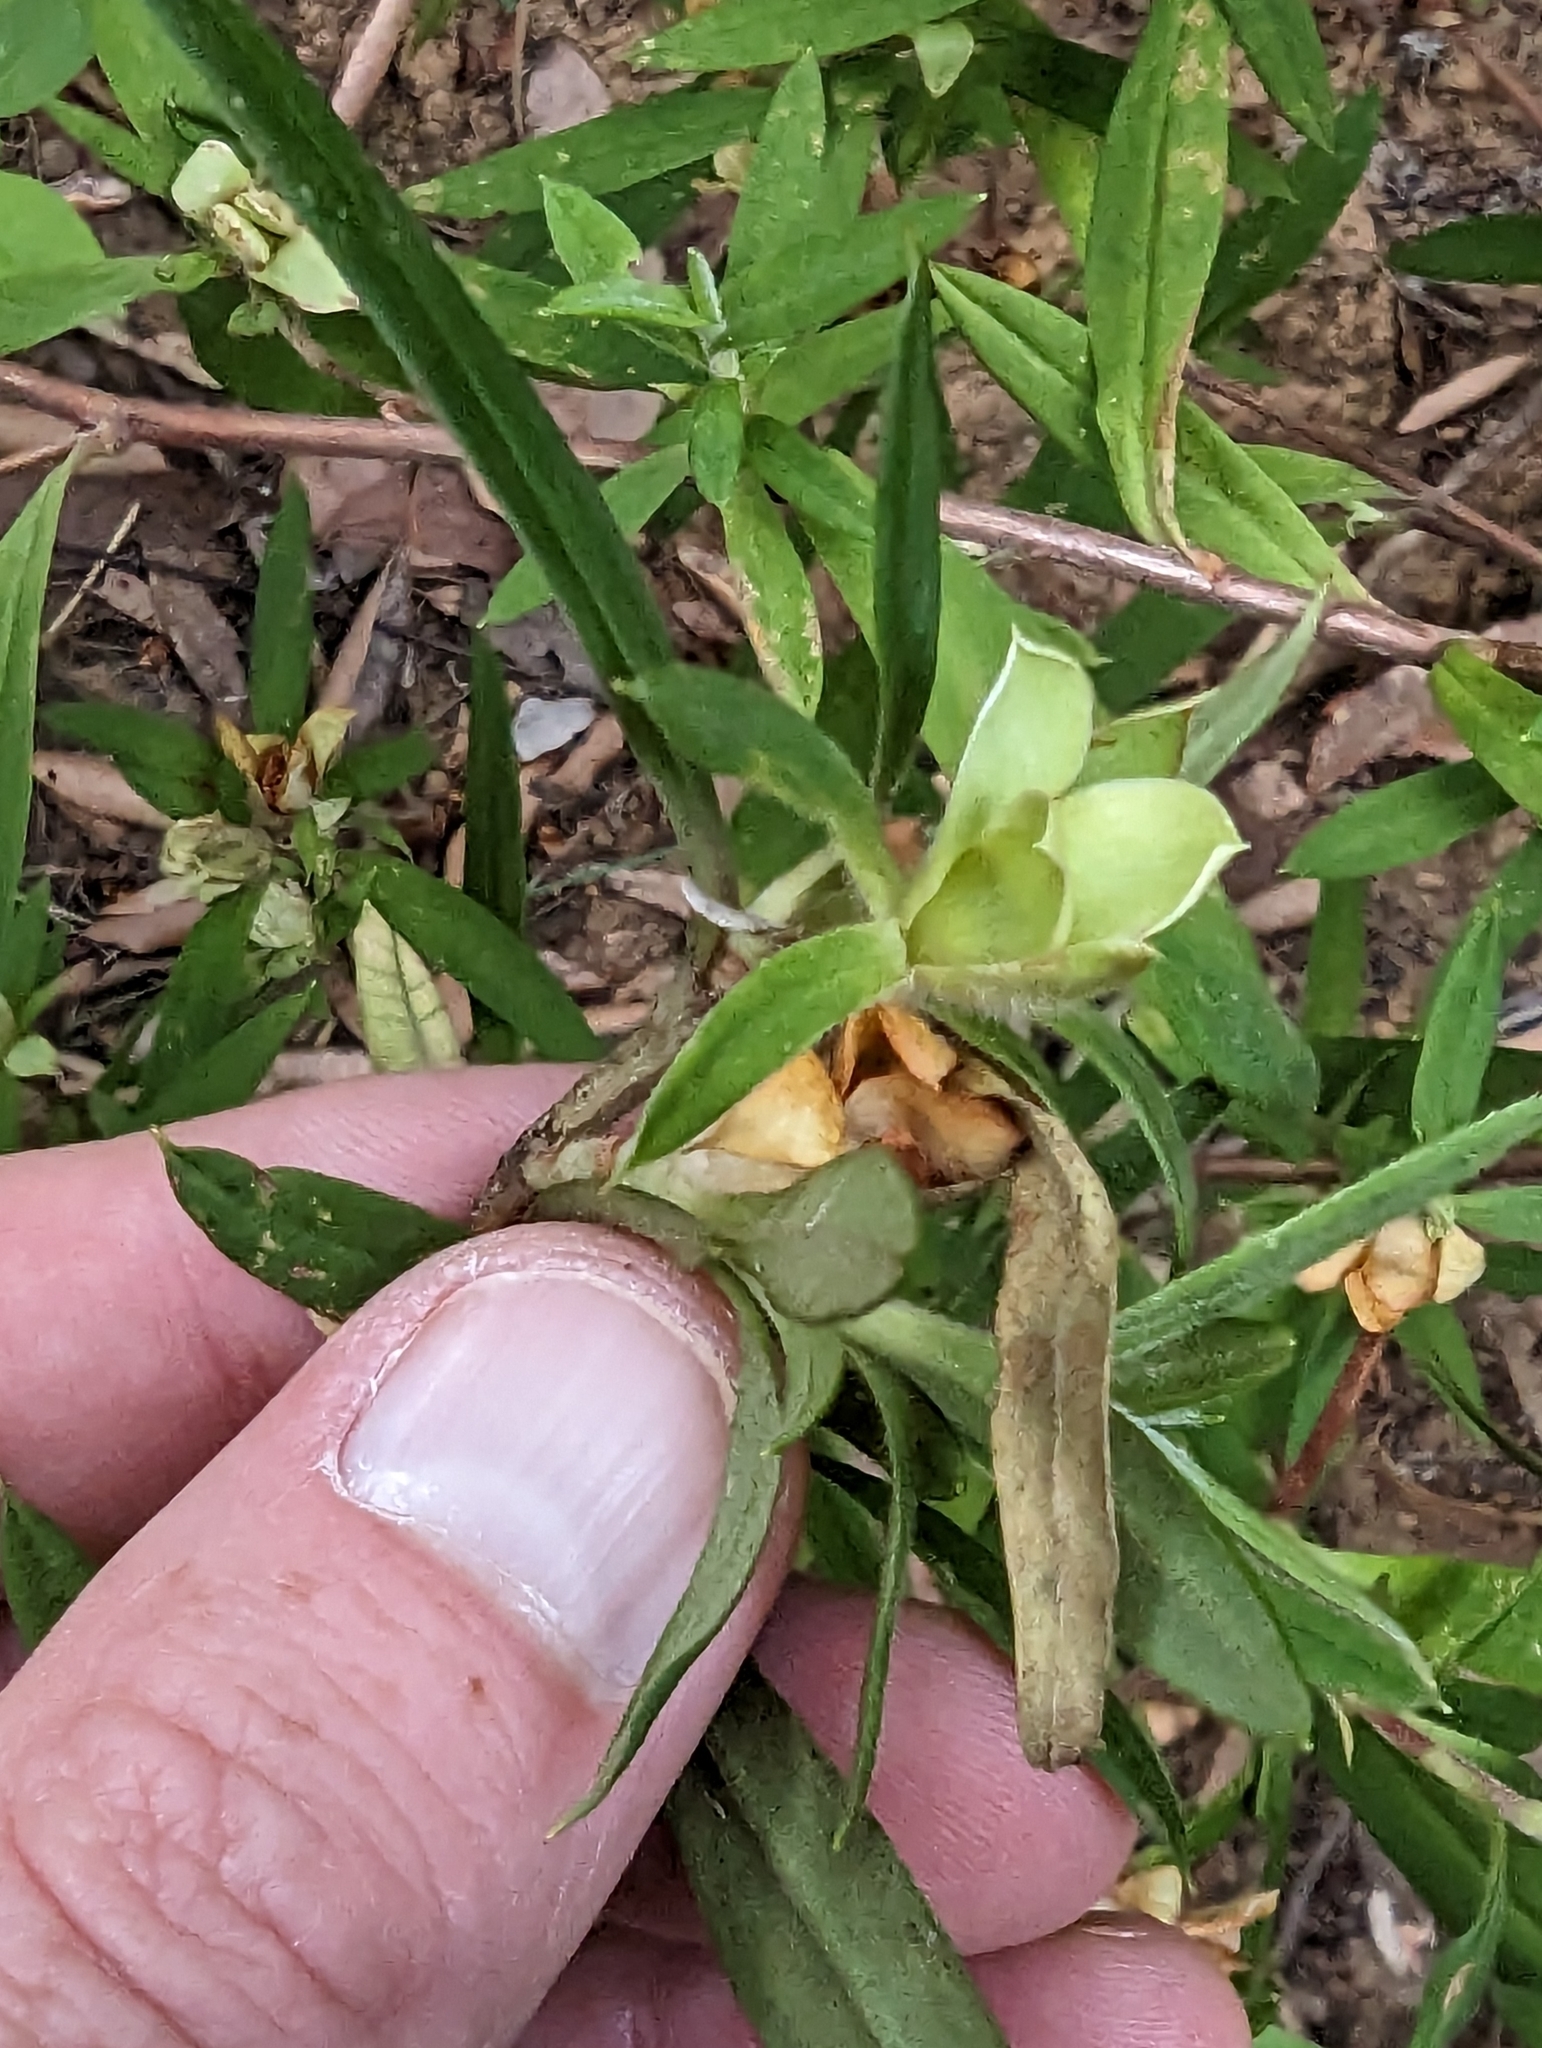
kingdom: Plantae
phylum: Tracheophyta
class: Magnoliopsida
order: Dilleniales
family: Dilleniaceae
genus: Hibbertia
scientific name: Hibbertia saligna
